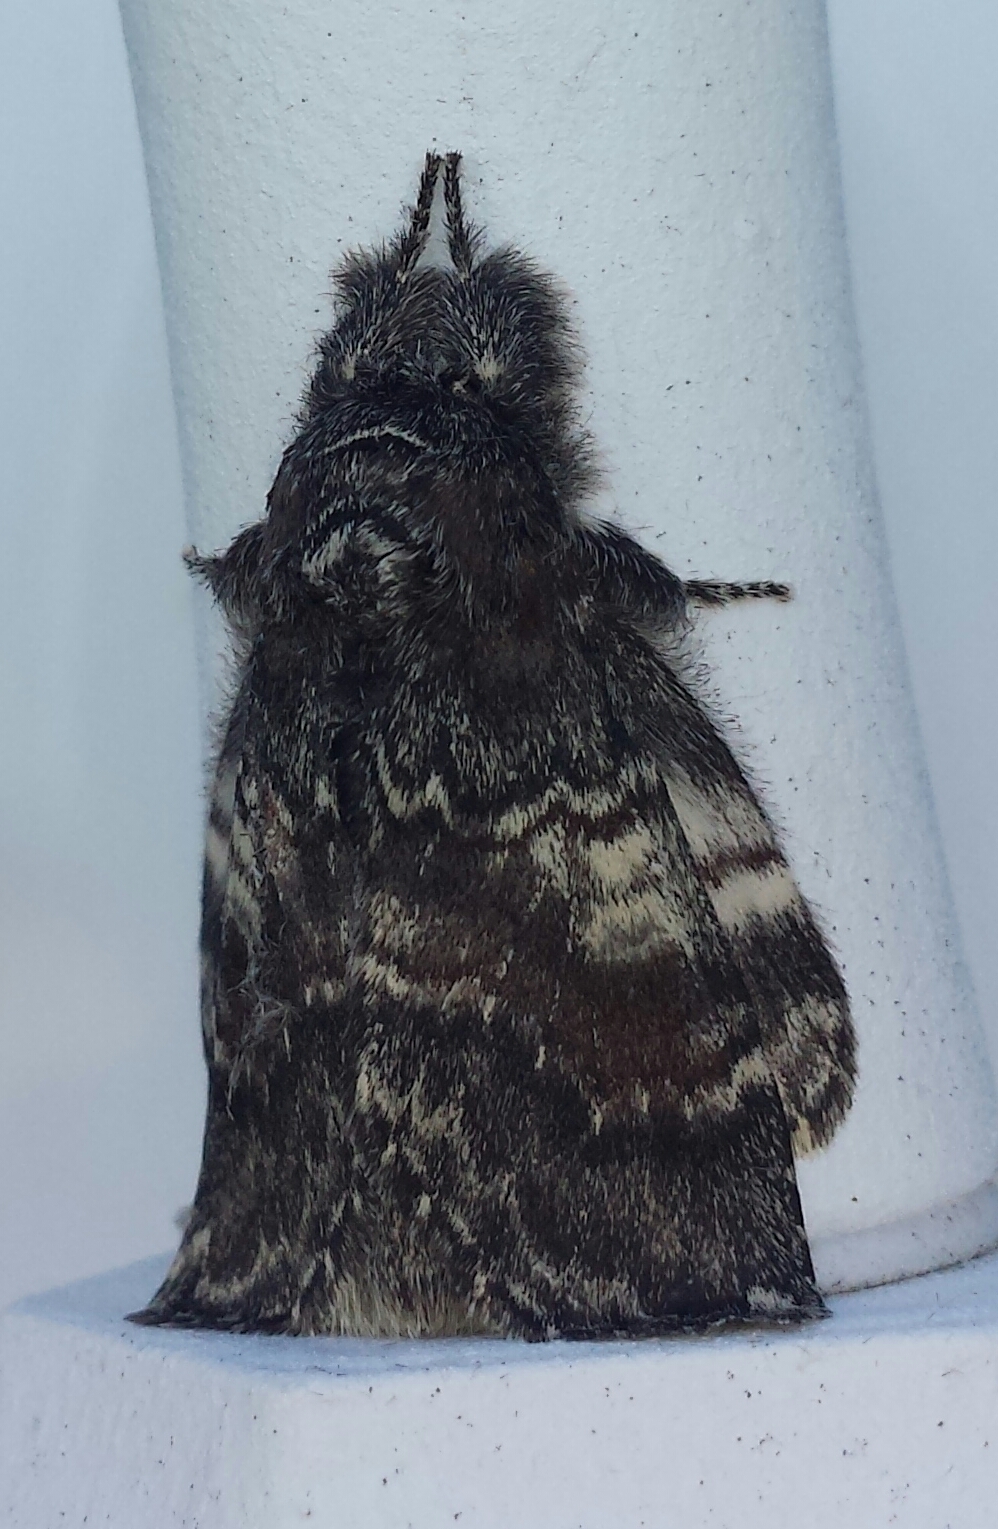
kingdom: Animalia
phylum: Arthropoda
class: Insecta
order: Lepidoptera
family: Notodontidae
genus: Peridea
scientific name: Peridea ferruginea
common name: Chocolate prominent
